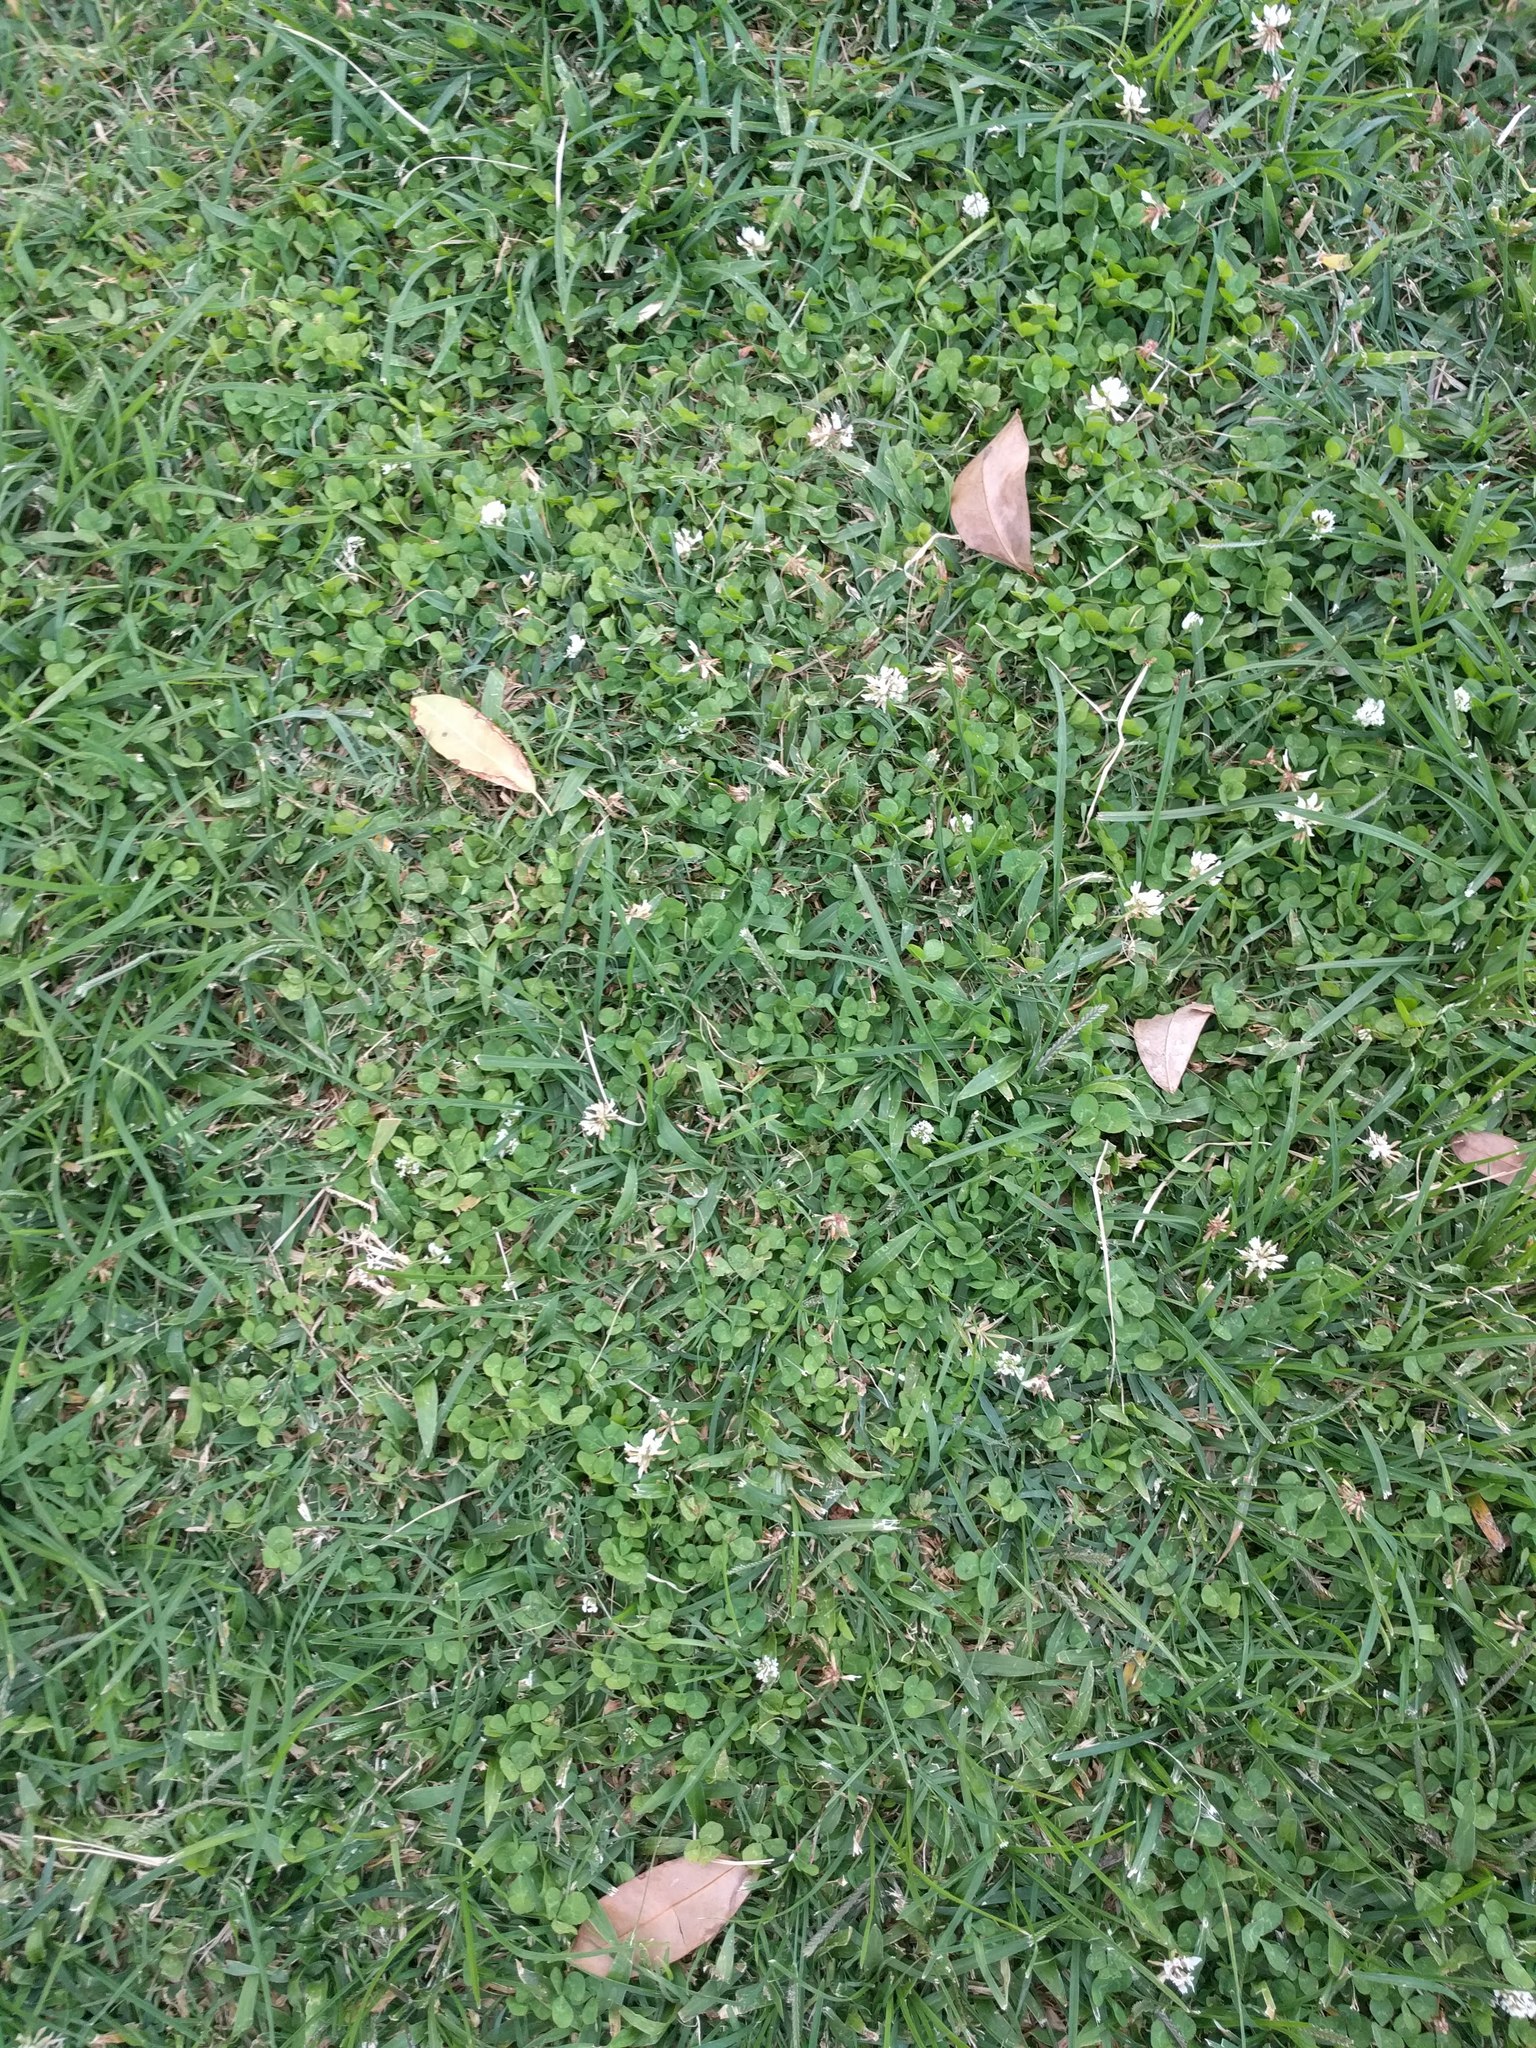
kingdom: Plantae
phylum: Tracheophyta
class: Magnoliopsida
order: Fabales
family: Fabaceae
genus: Trifolium
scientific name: Trifolium repens
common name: White clover
